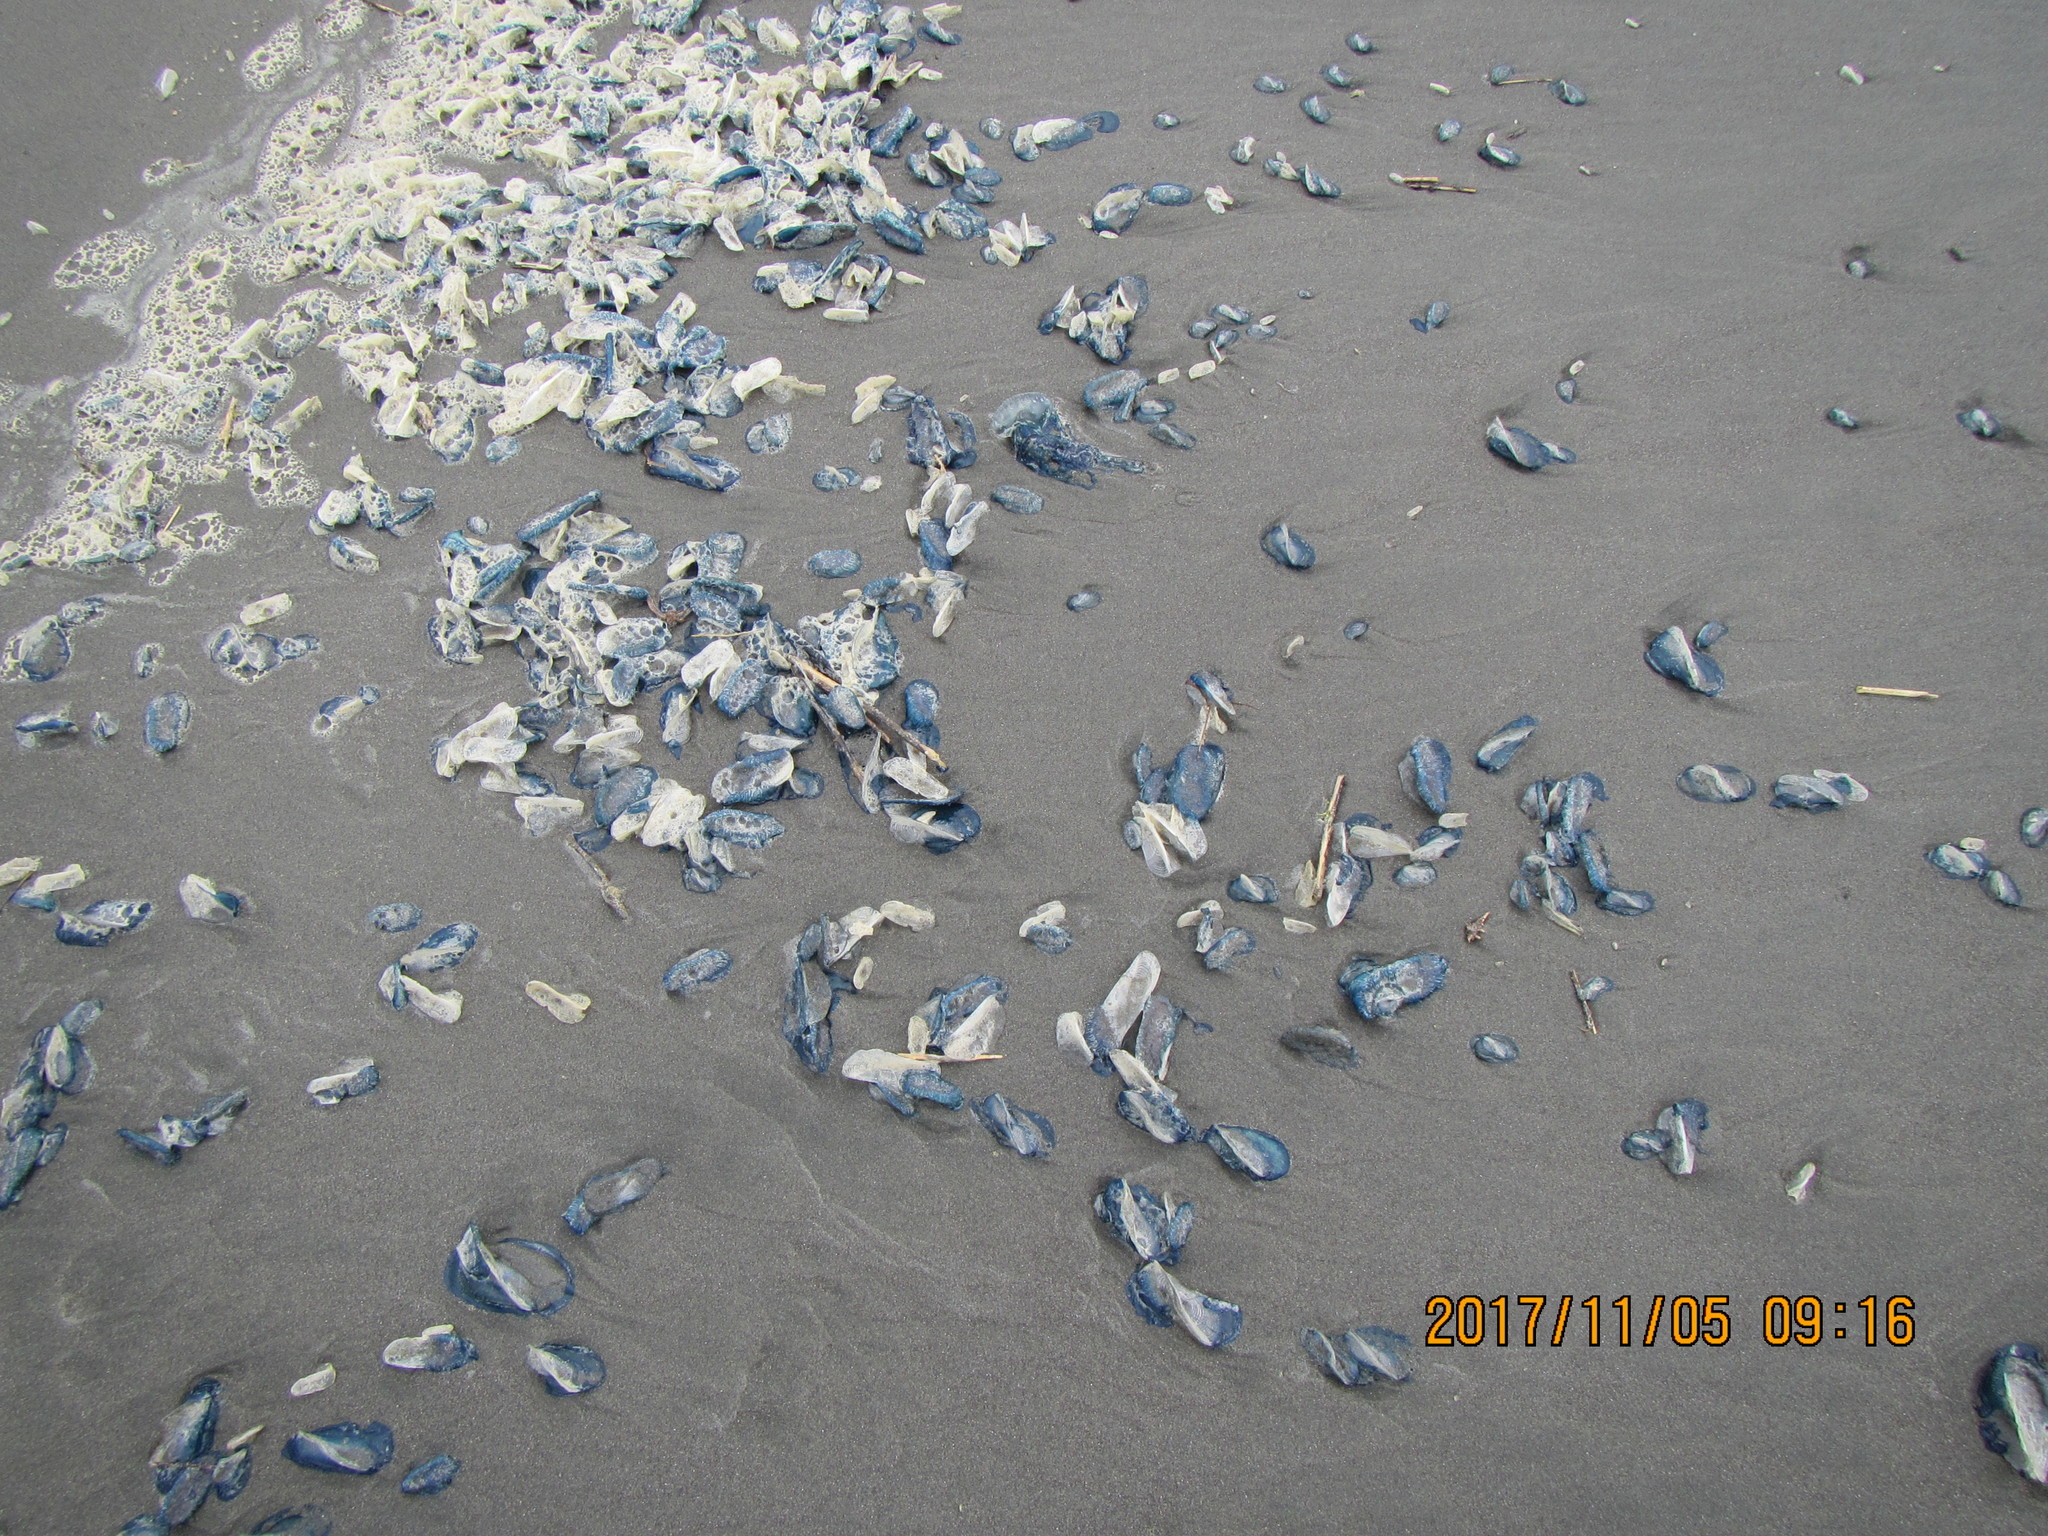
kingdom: Animalia
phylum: Cnidaria
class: Hydrozoa
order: Anthoathecata
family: Porpitidae
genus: Velella
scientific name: Velella velella
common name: By-the-wind-sailor
